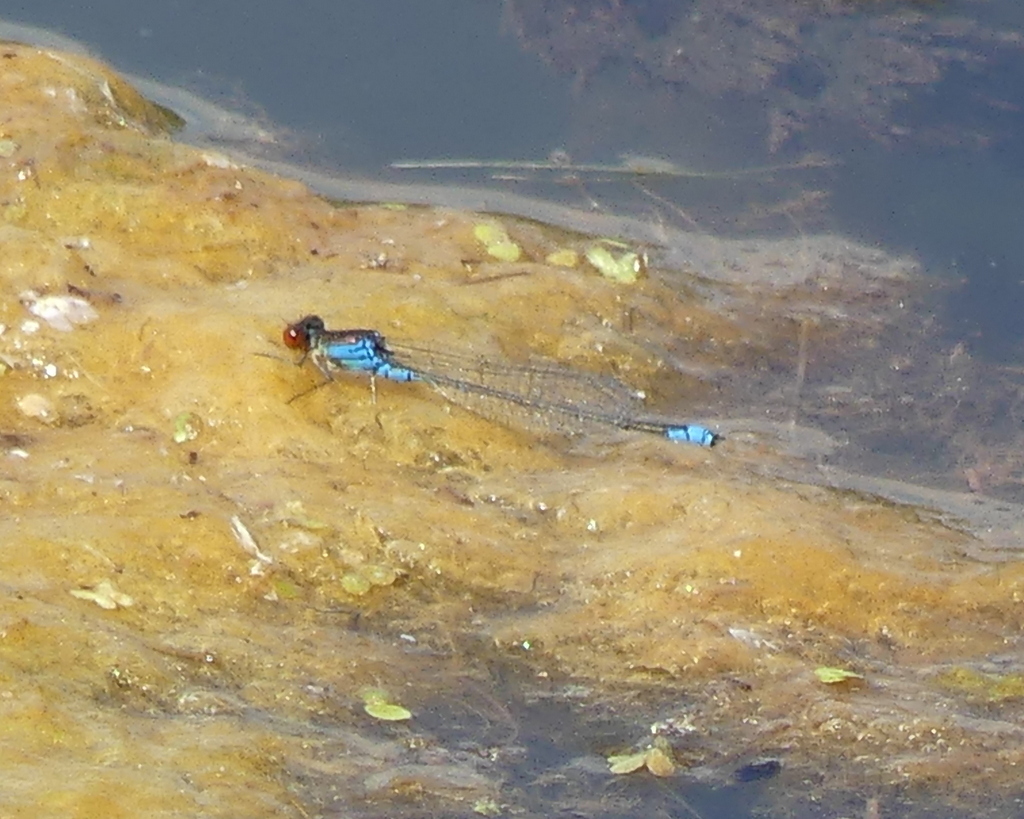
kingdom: Animalia
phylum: Arthropoda
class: Insecta
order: Odonata
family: Coenagrionidae
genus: Erythromma
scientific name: Erythromma viridulum
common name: Small red-eyed damselfly
